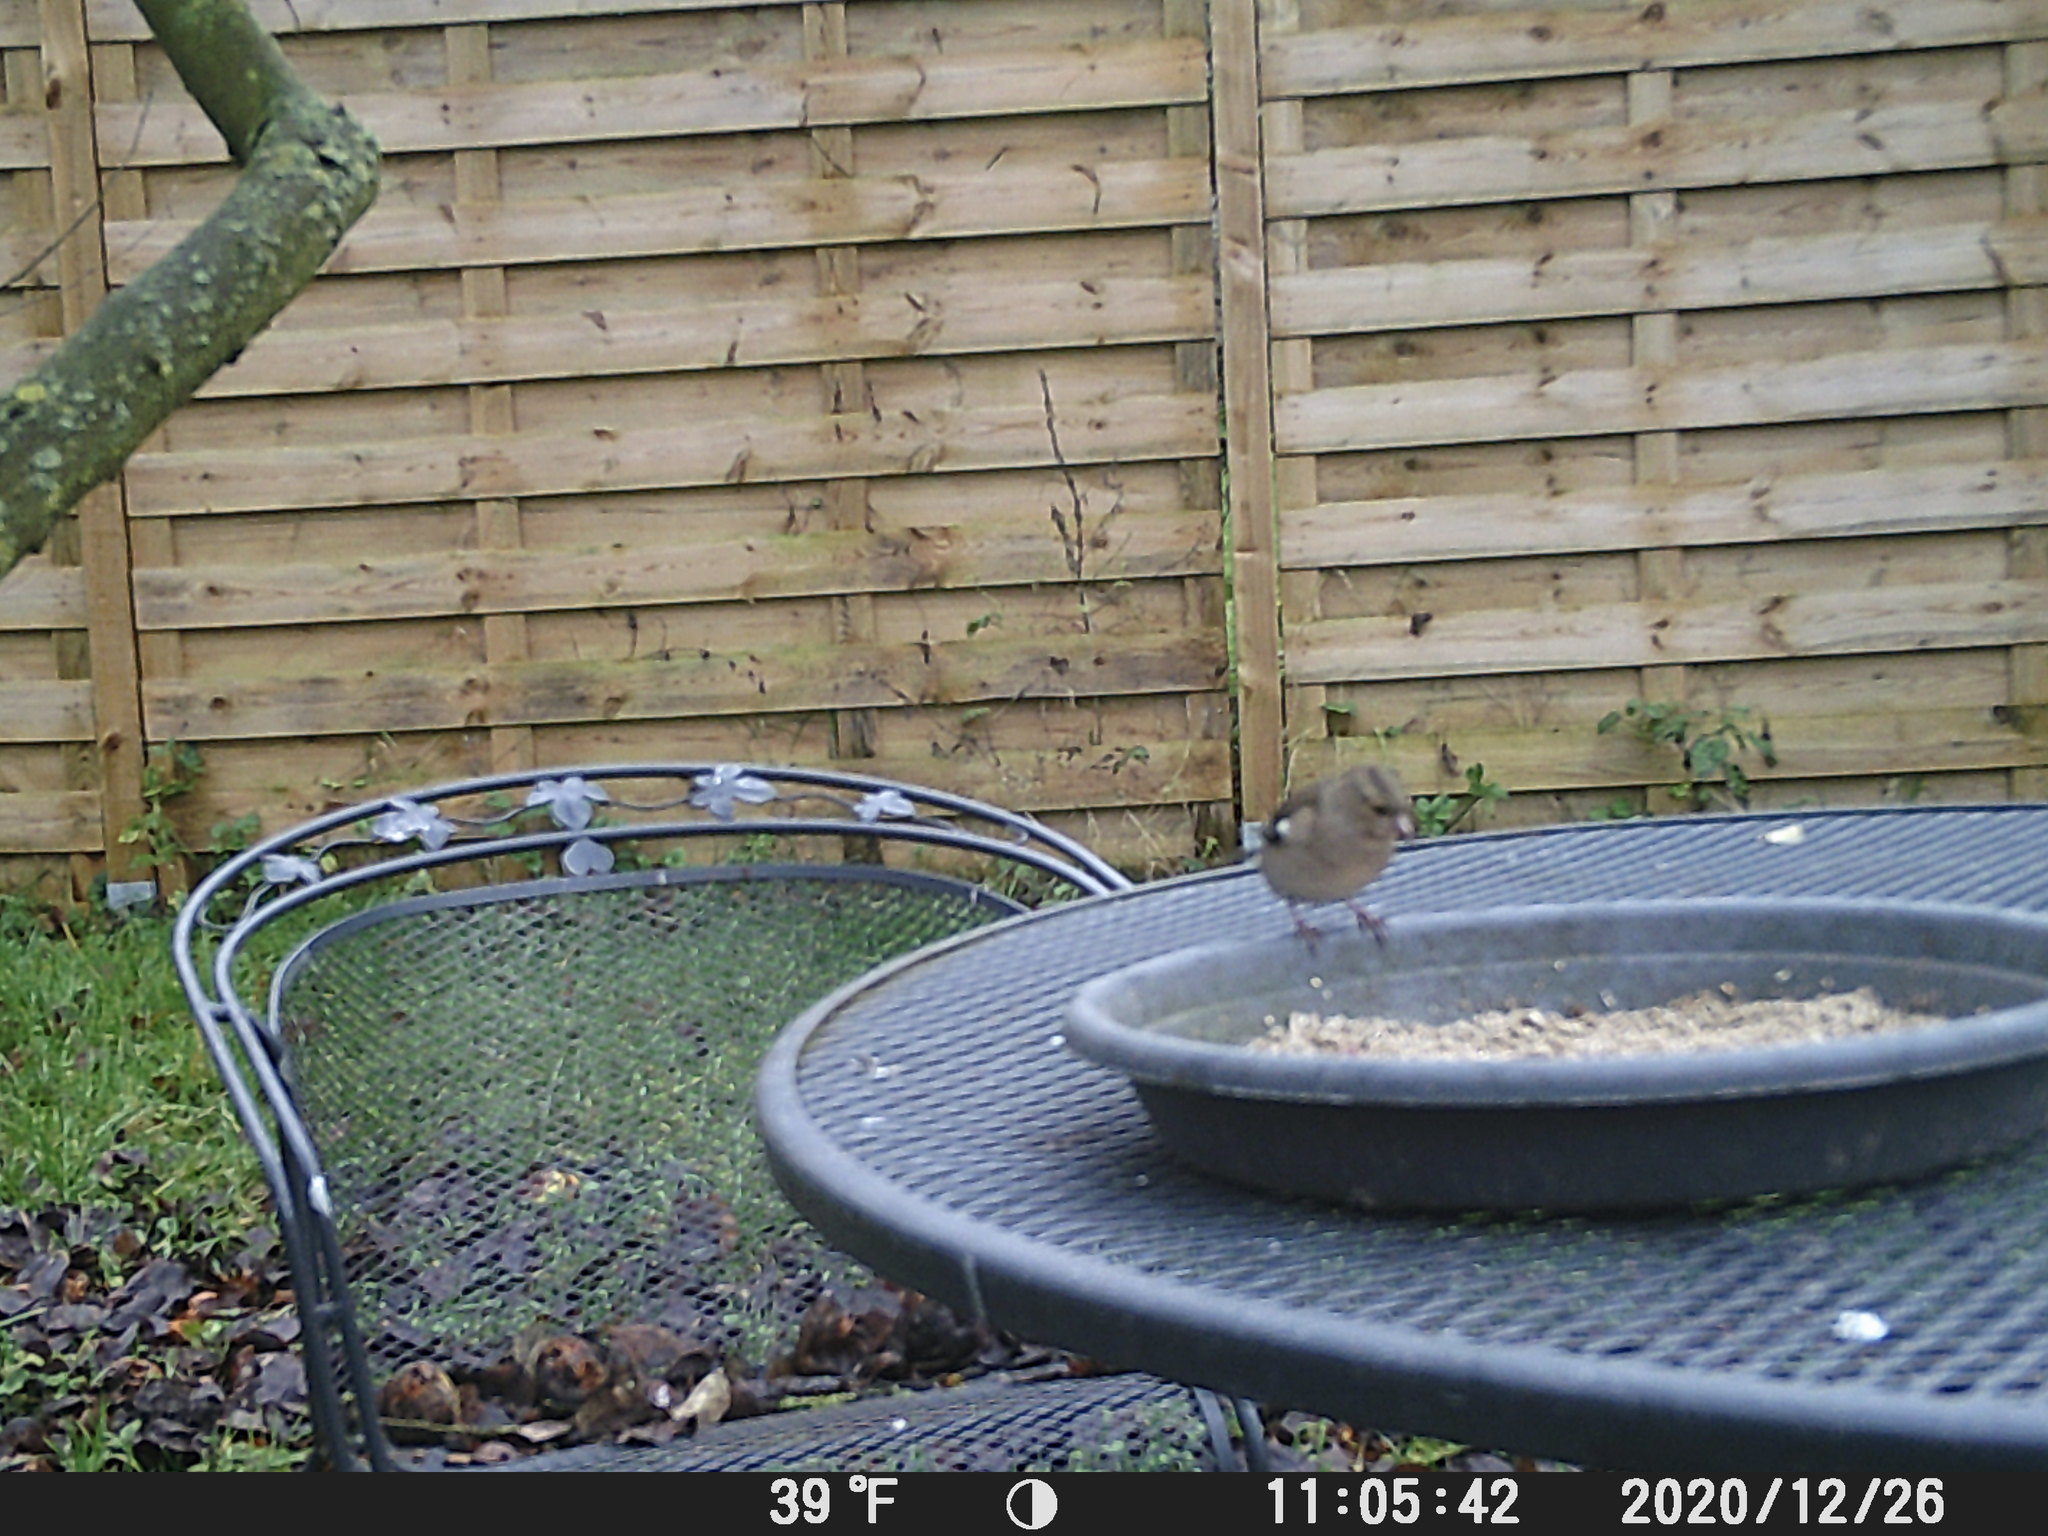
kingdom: Animalia
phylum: Chordata
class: Aves
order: Passeriformes
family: Fringillidae
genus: Fringilla
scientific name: Fringilla coelebs
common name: Common chaffinch
